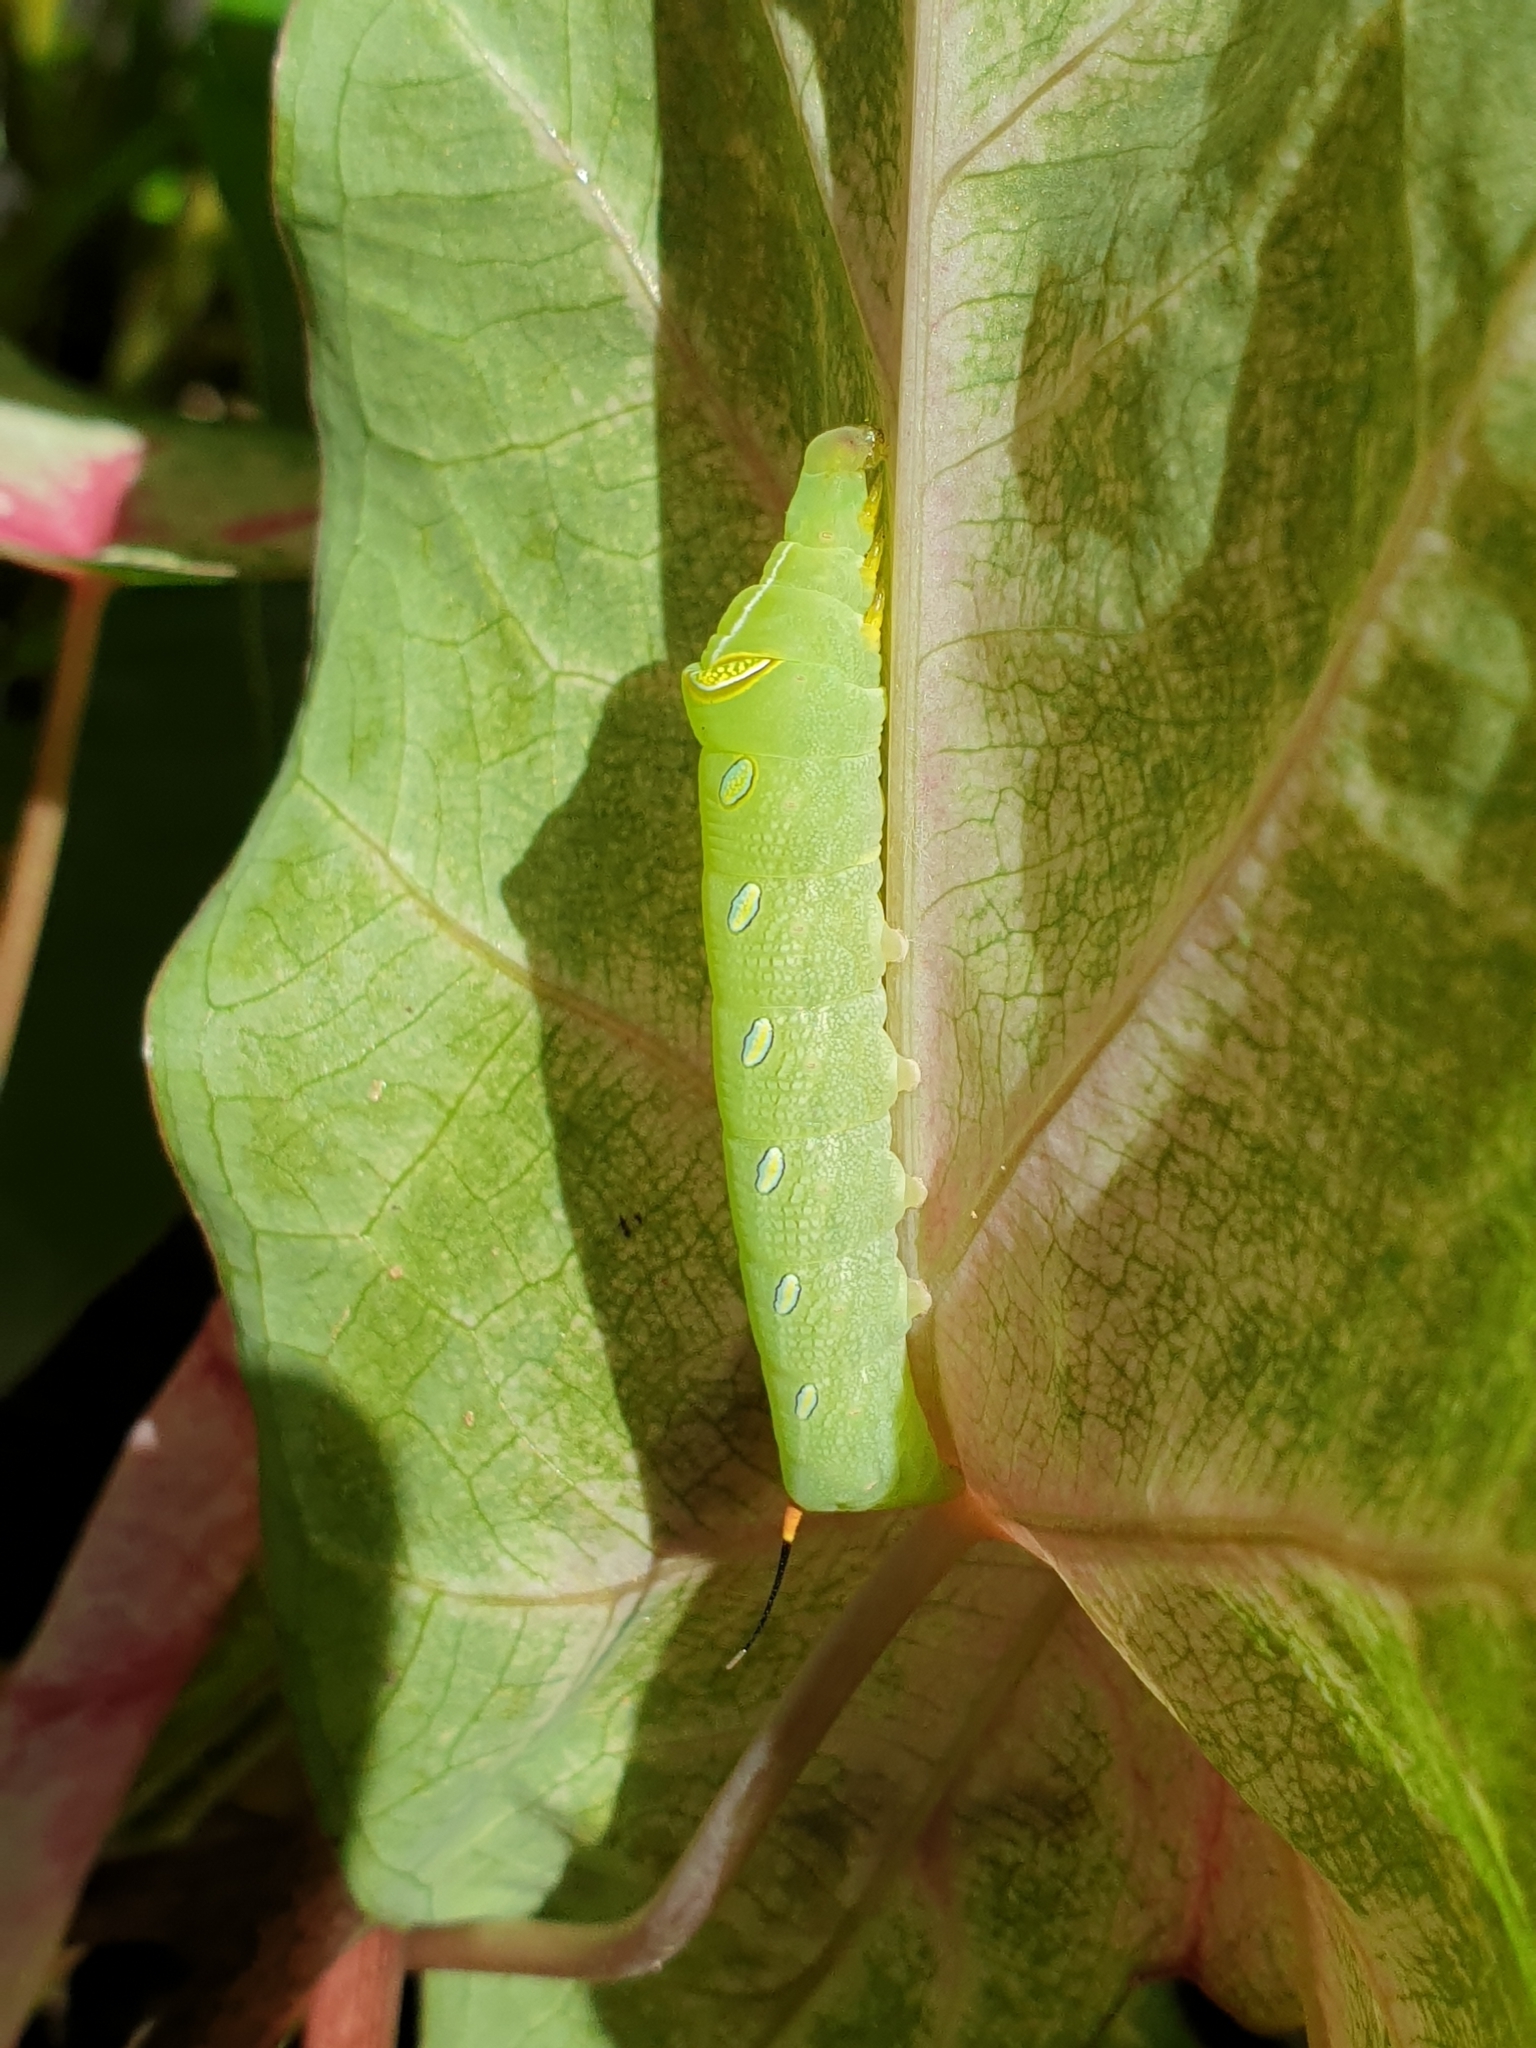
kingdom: Animalia
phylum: Arthropoda
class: Insecta
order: Lepidoptera
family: Sphingidae
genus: Pergesa
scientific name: Pergesa acteus
